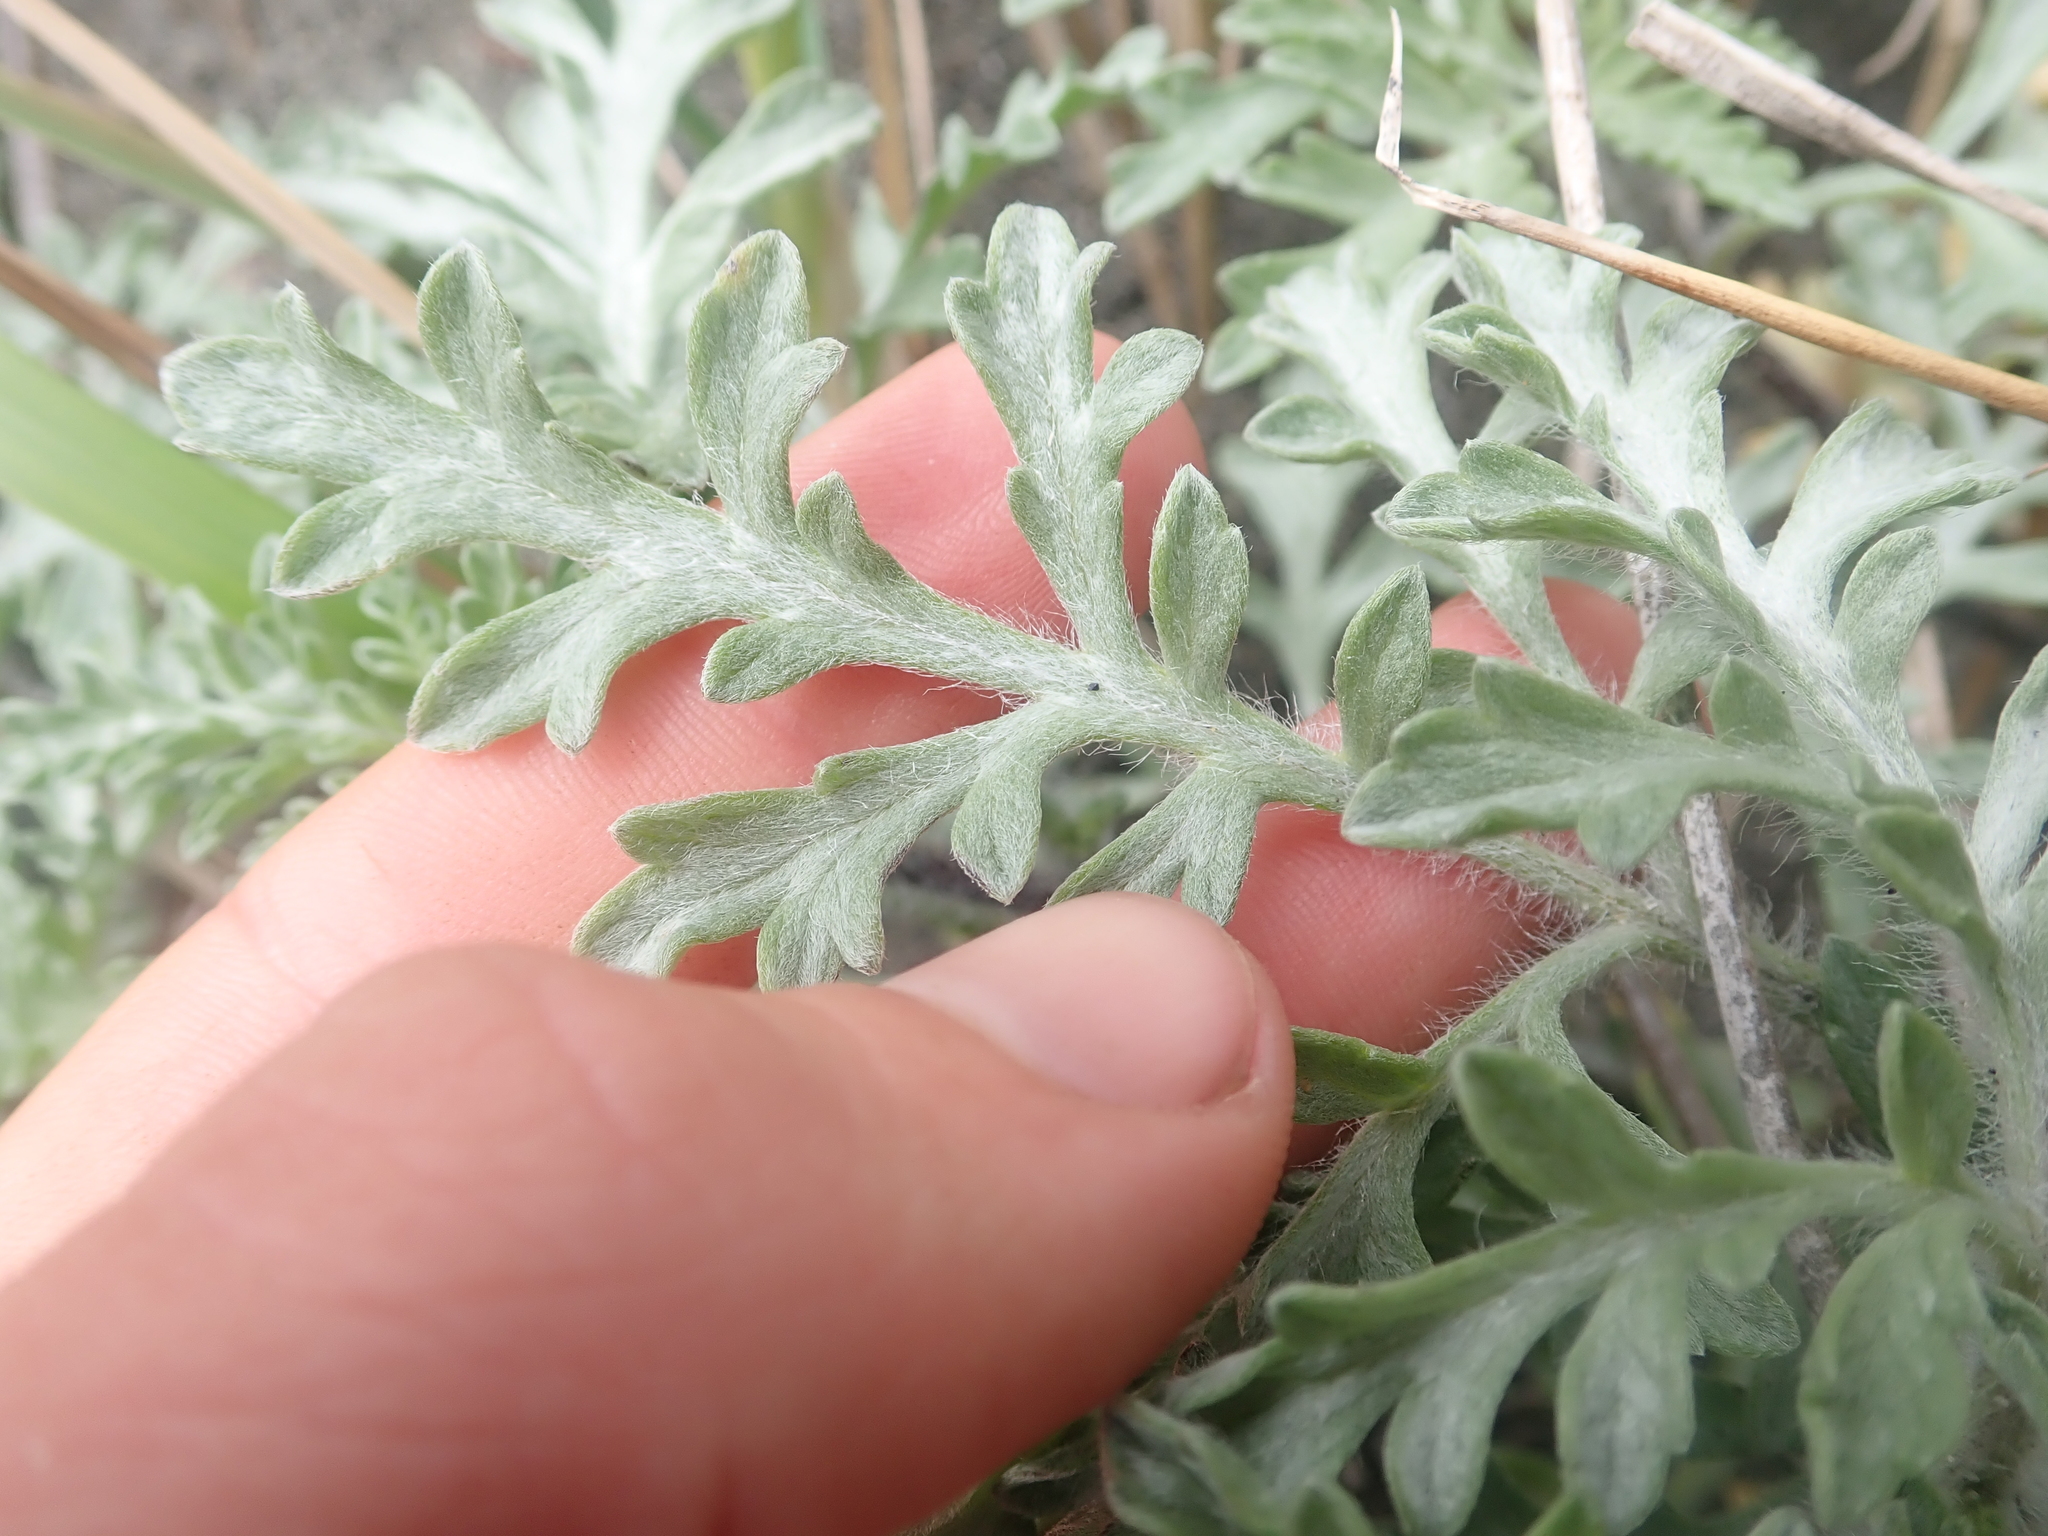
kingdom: Plantae
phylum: Tracheophyta
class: Magnoliopsida
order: Asterales
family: Asteraceae
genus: Ambrosia
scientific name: Ambrosia chamissonis
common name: Beachbur
